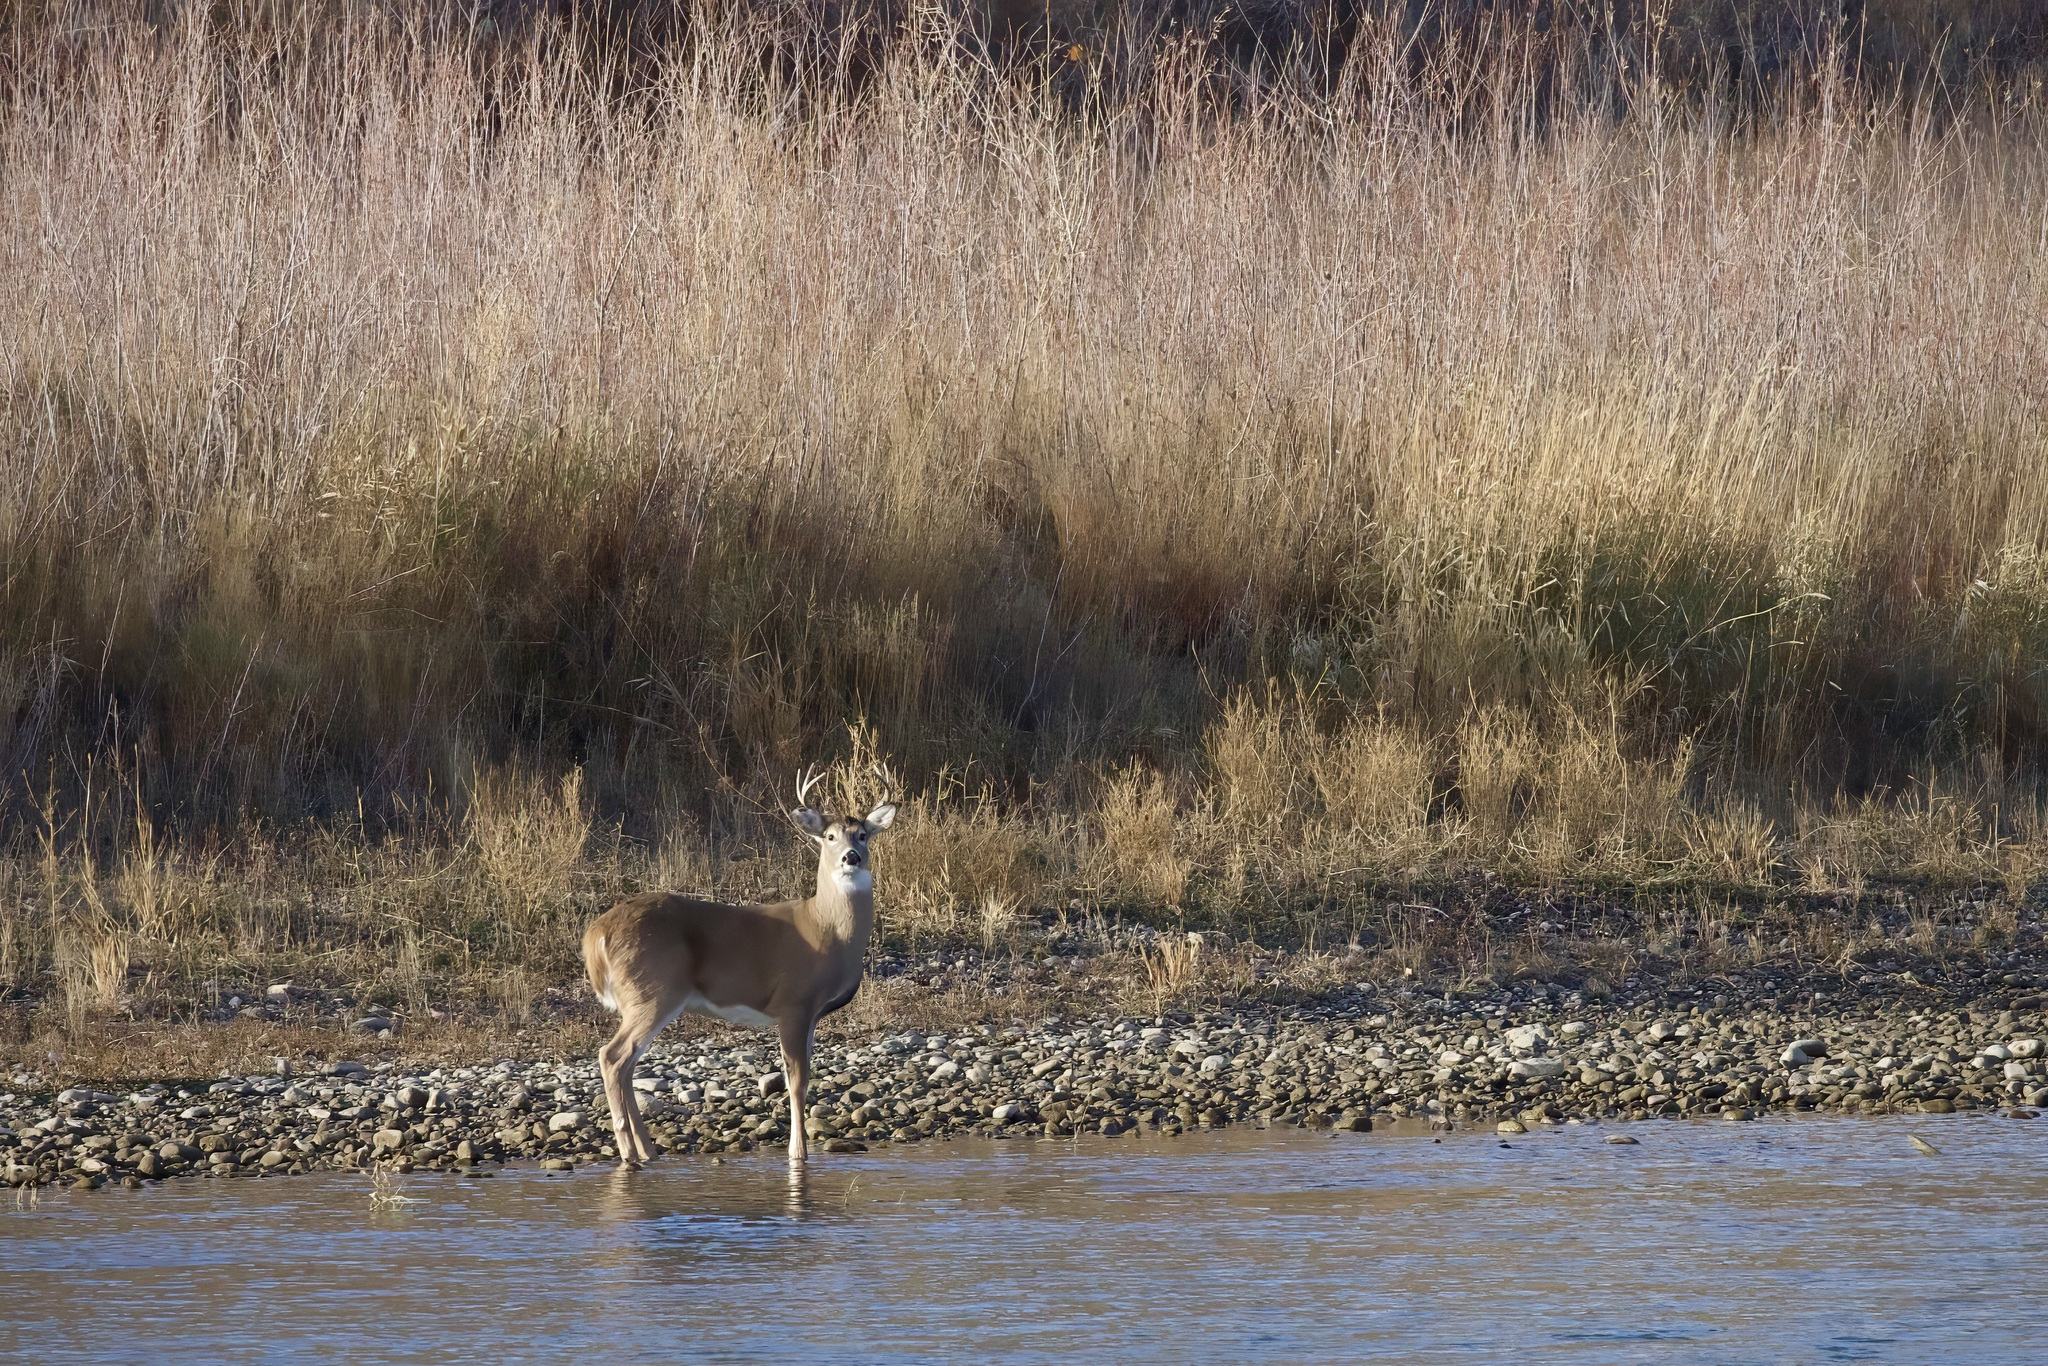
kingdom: Animalia
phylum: Chordata
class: Mammalia
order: Artiodactyla
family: Cervidae
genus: Odocoileus
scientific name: Odocoileus virginianus
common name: White-tailed deer
